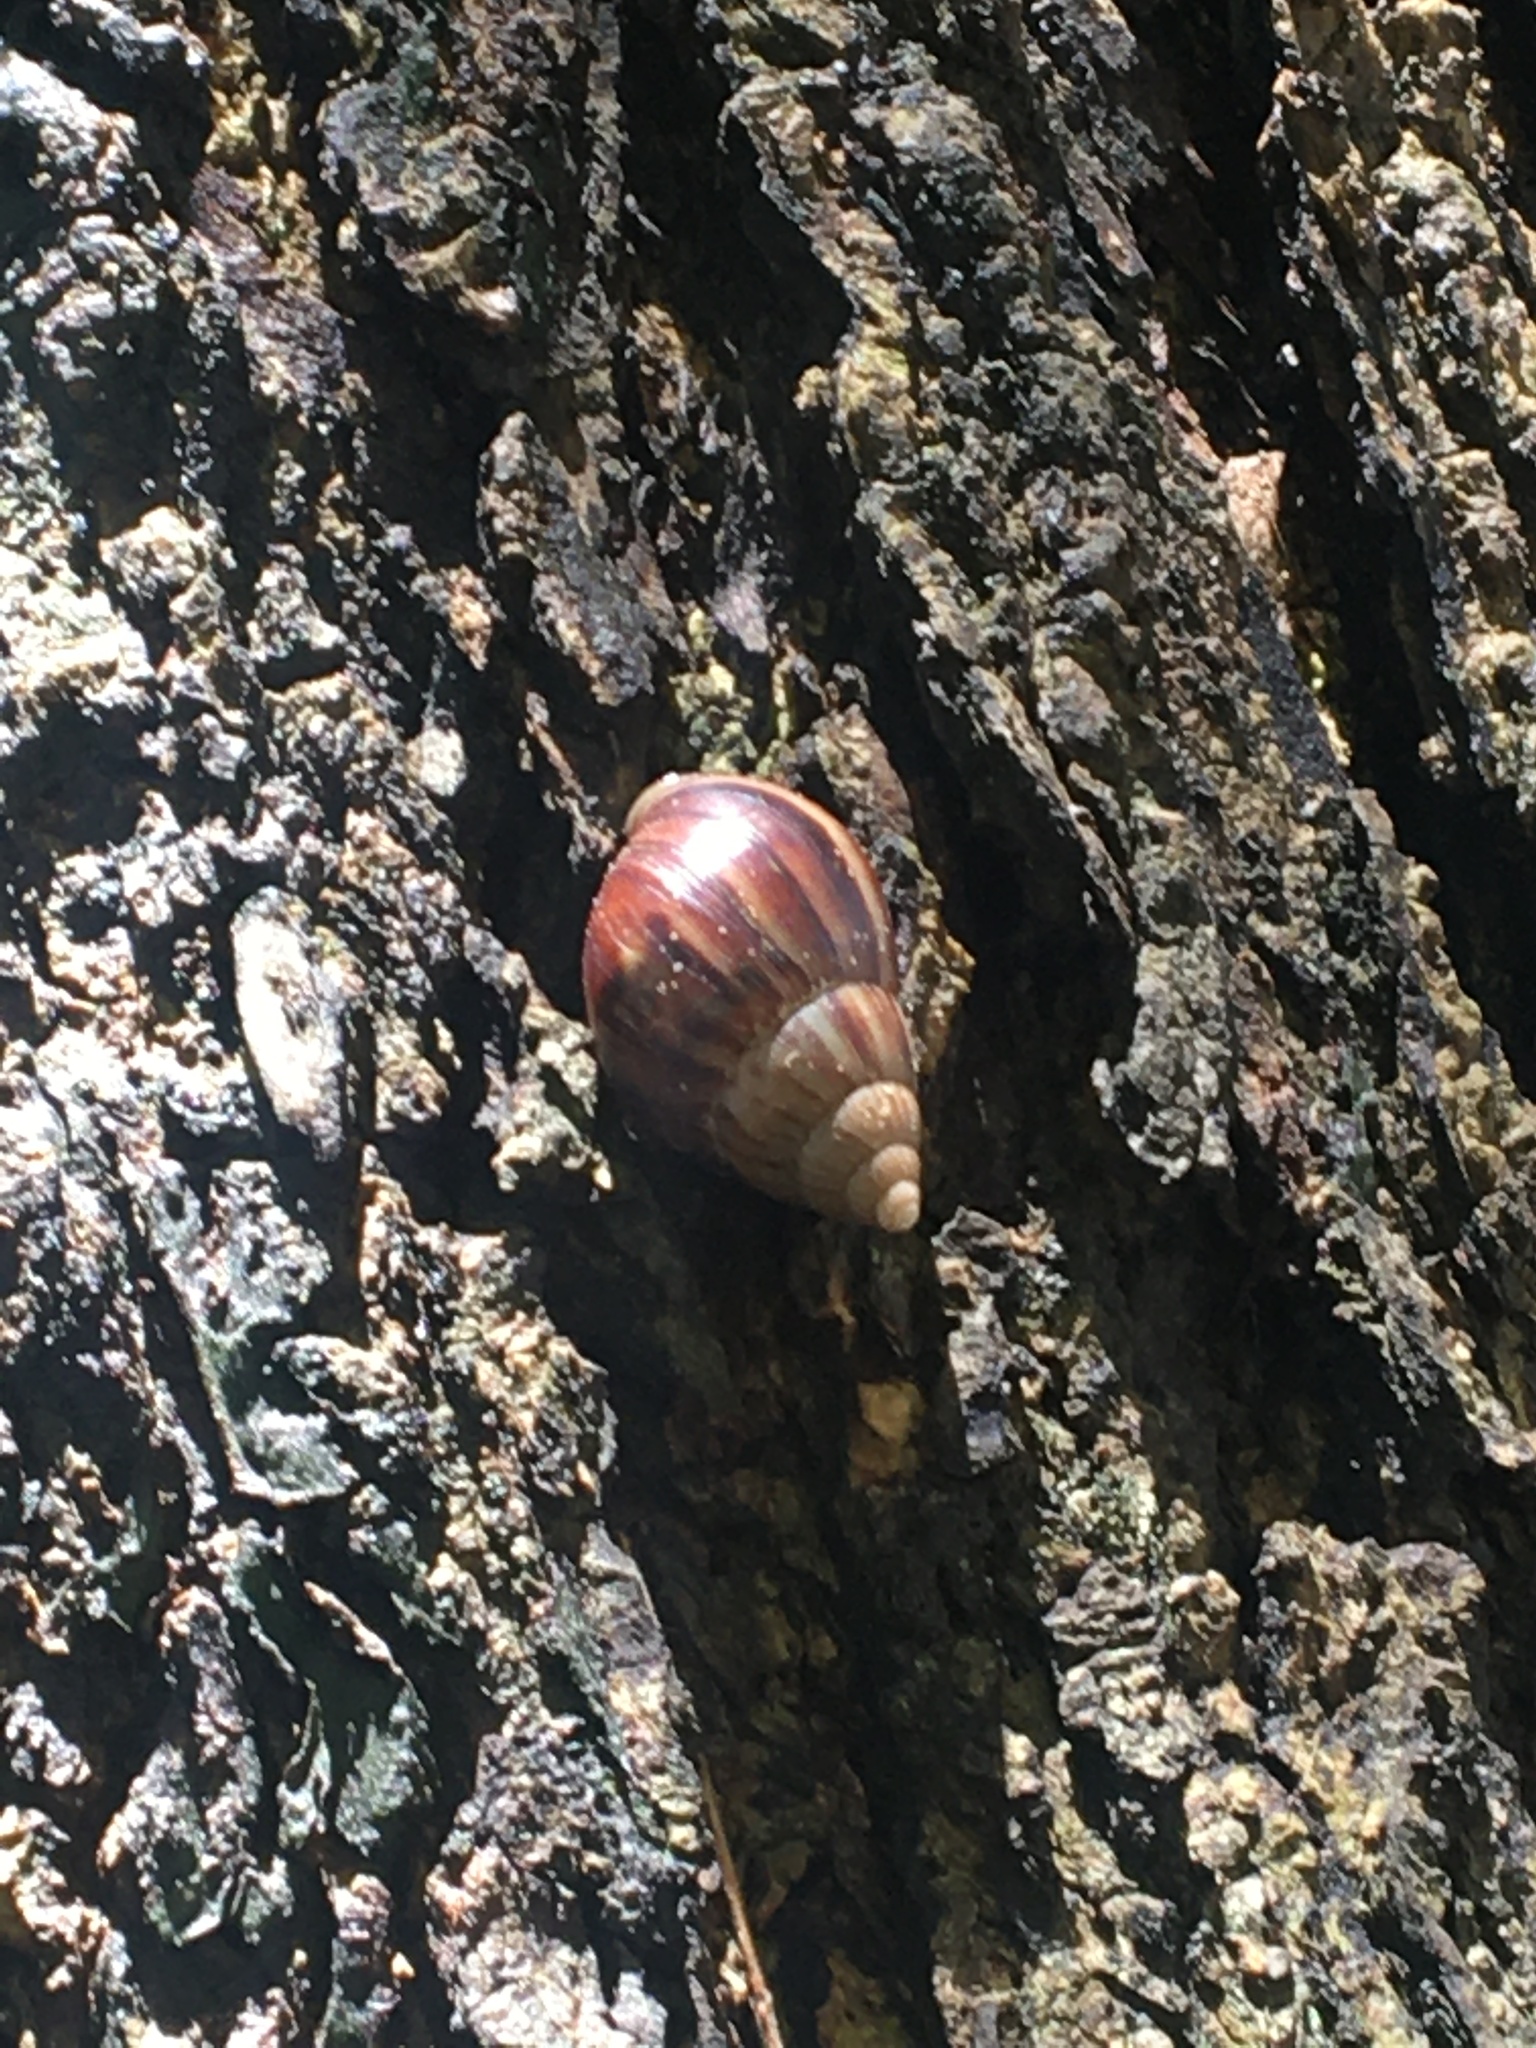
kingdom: Animalia
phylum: Mollusca
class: Gastropoda
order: Stylommatophora
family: Achatinidae
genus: Lissachatina
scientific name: Lissachatina fulica
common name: Giant african snail
